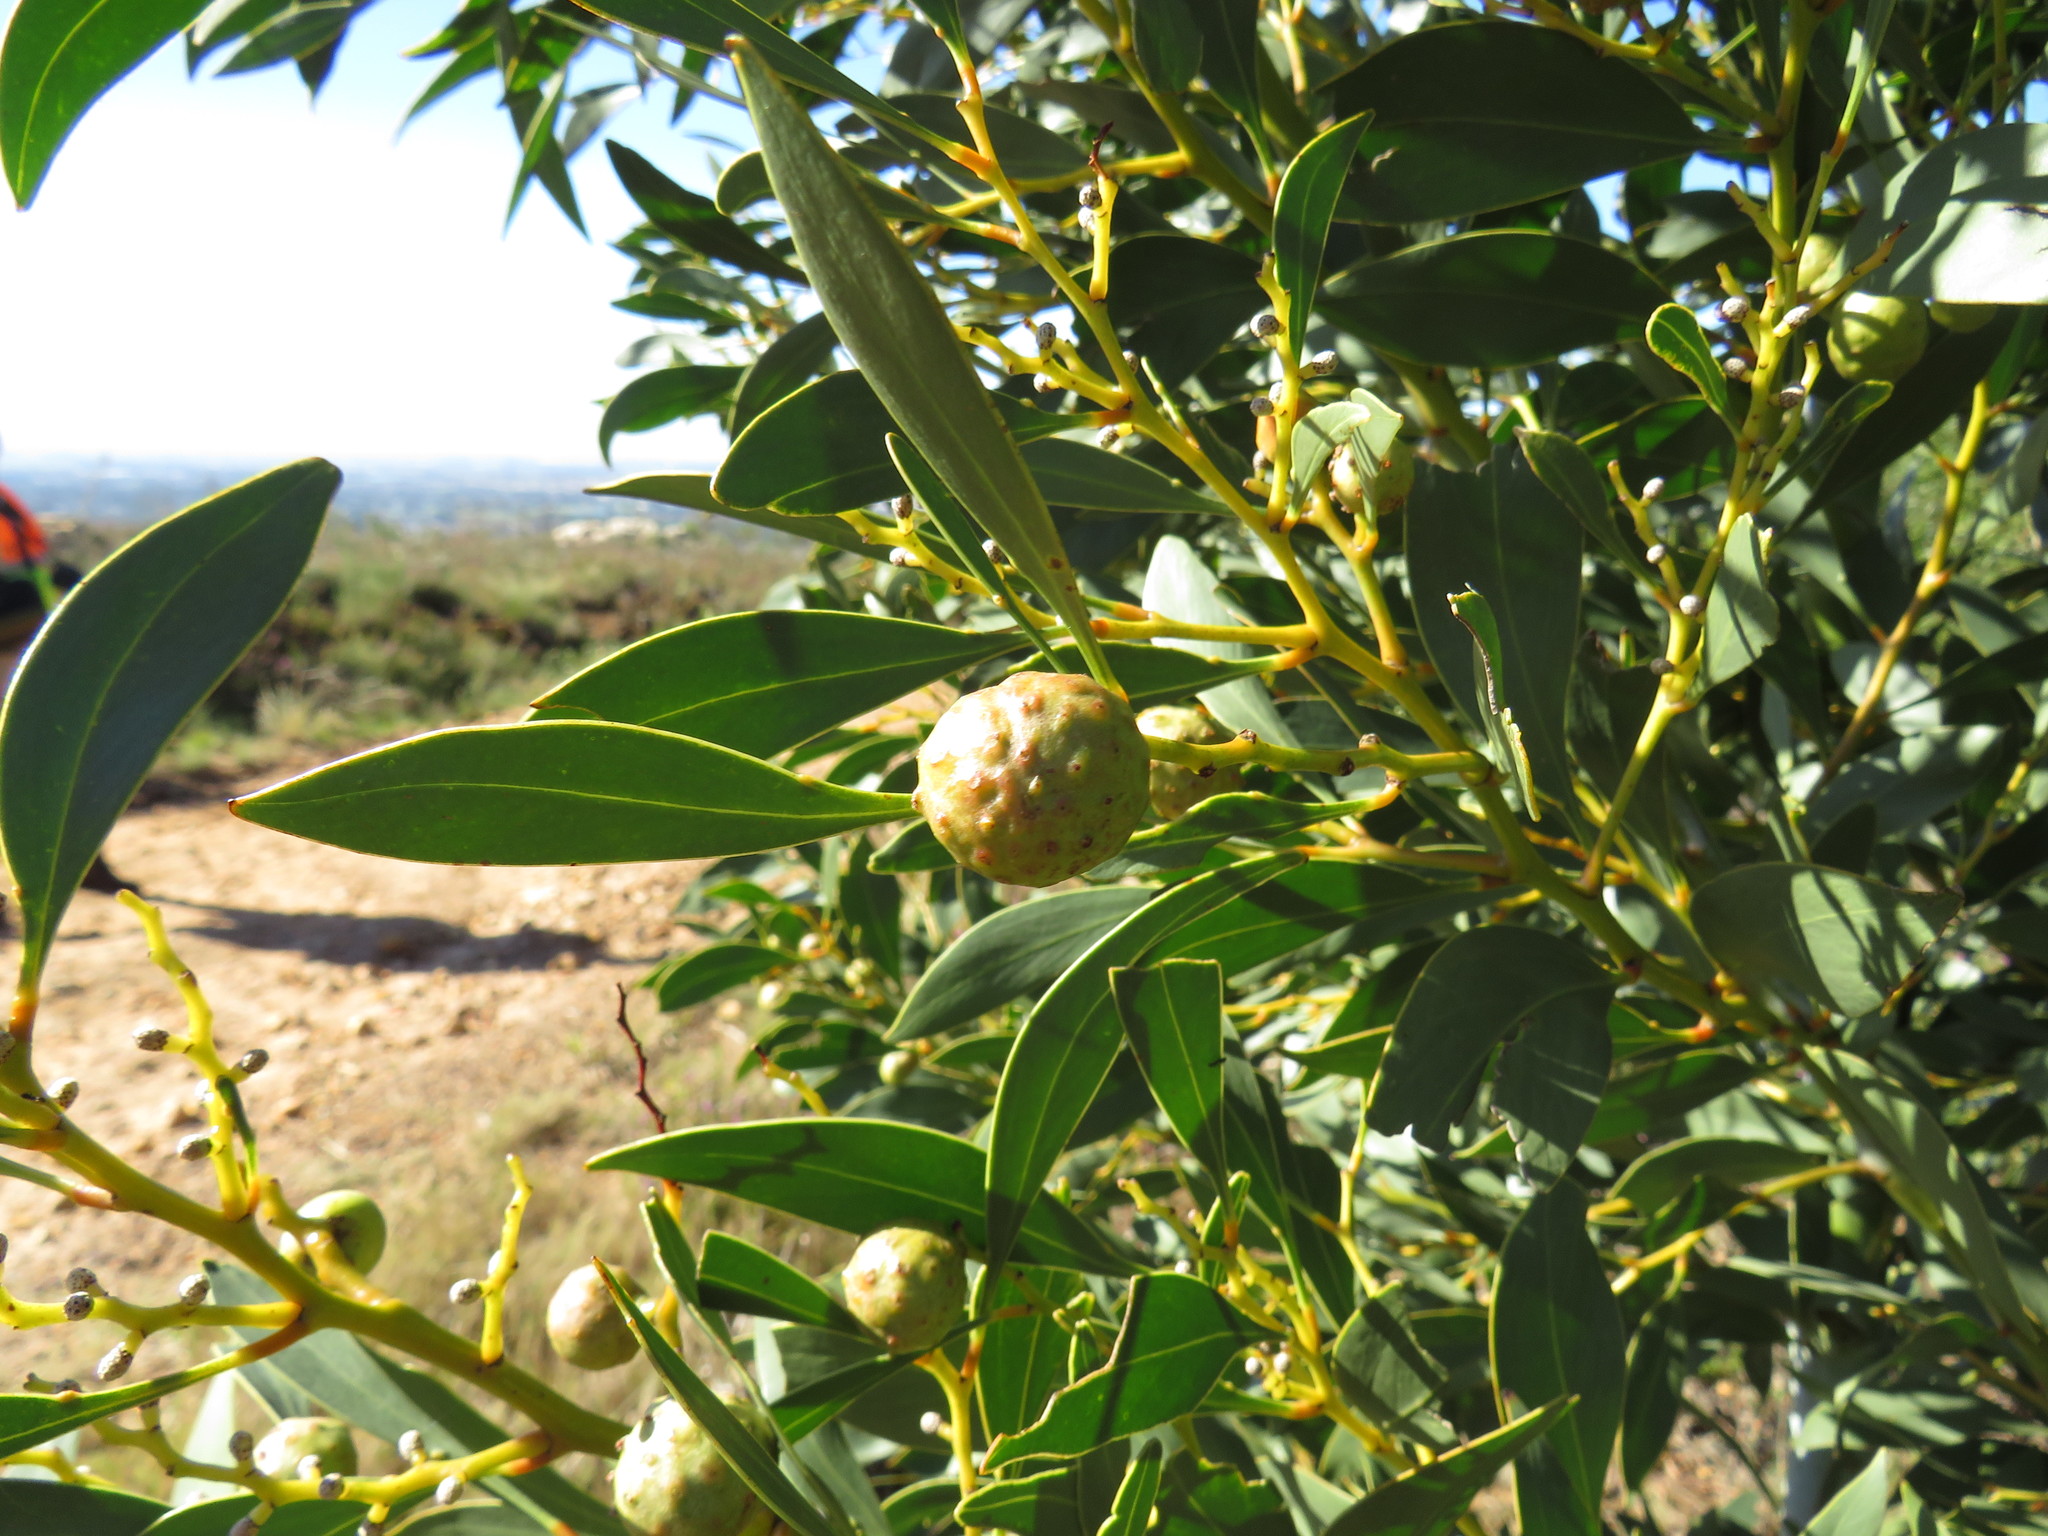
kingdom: Animalia
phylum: Arthropoda
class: Insecta
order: Hymenoptera
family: Pteromalidae
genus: Trichilogaster
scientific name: Trichilogaster signiventris
